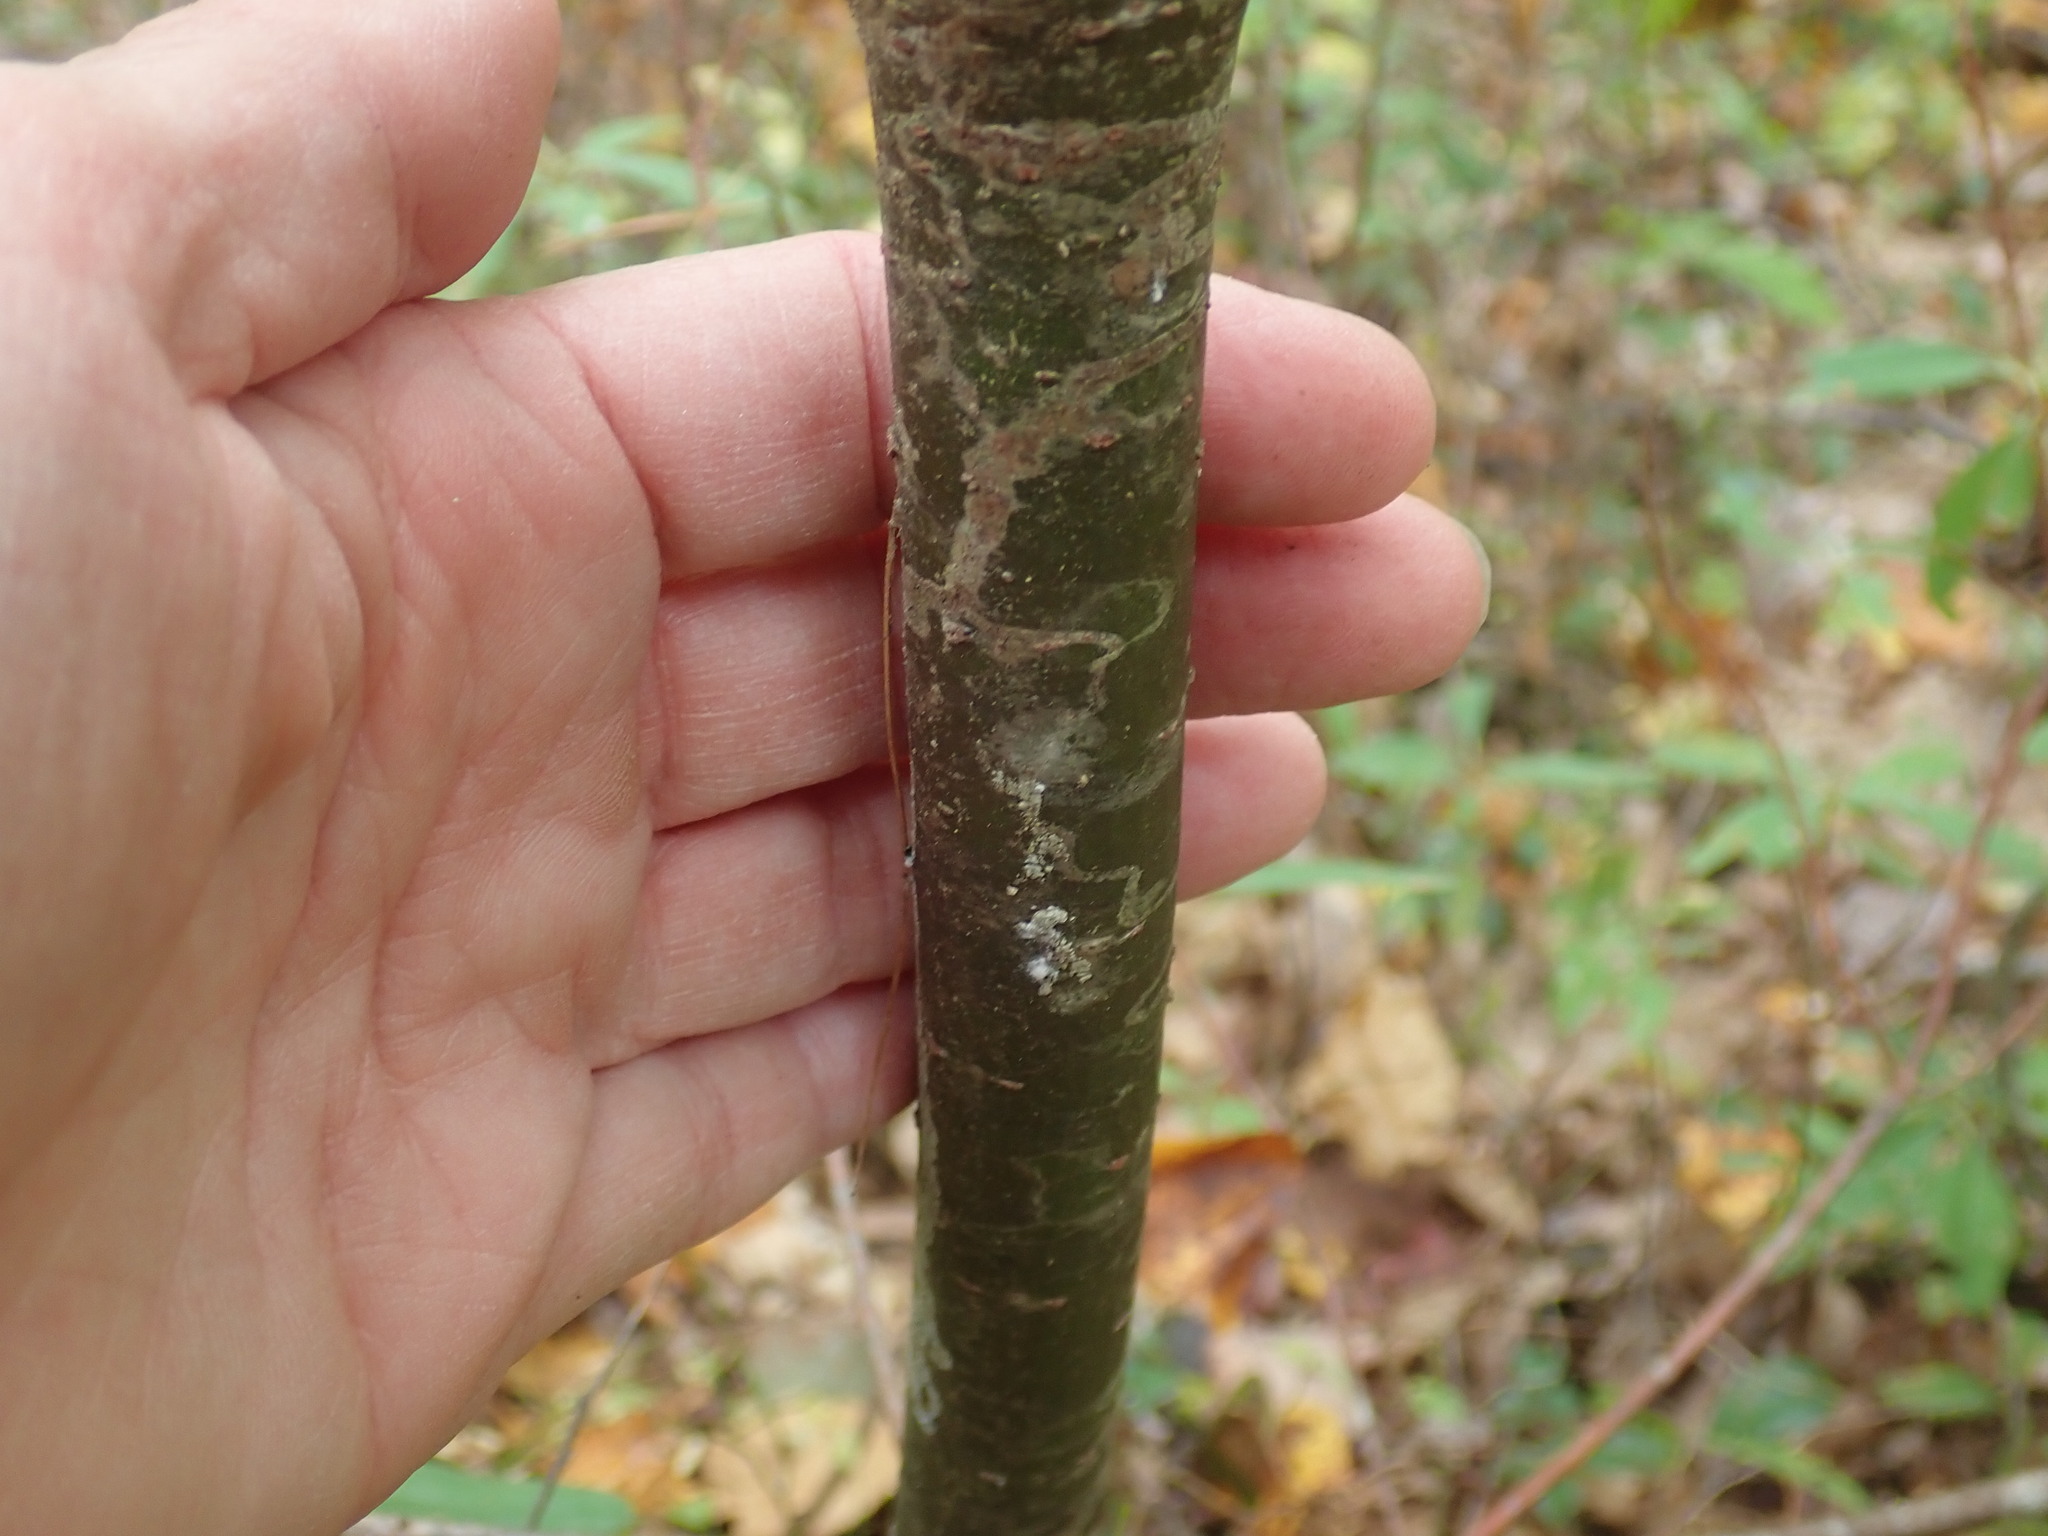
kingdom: Animalia
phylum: Arthropoda
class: Insecta
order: Lepidoptera
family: Gracillariidae
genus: Marmara
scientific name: Marmara fasciella
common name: White pine barkminer moth
